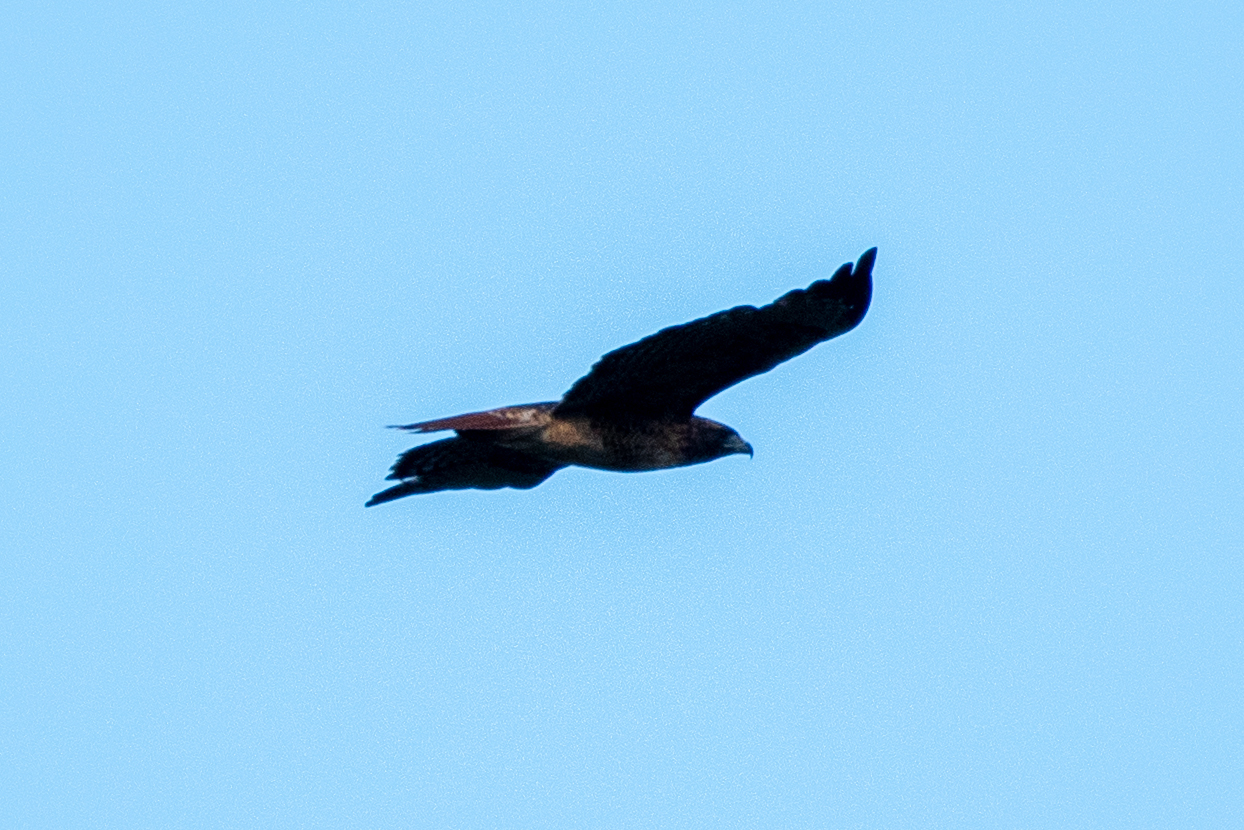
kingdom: Animalia
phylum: Chordata
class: Aves
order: Accipitriformes
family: Accipitridae
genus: Buteo
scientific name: Buteo jamaicensis
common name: Red-tailed hawk
